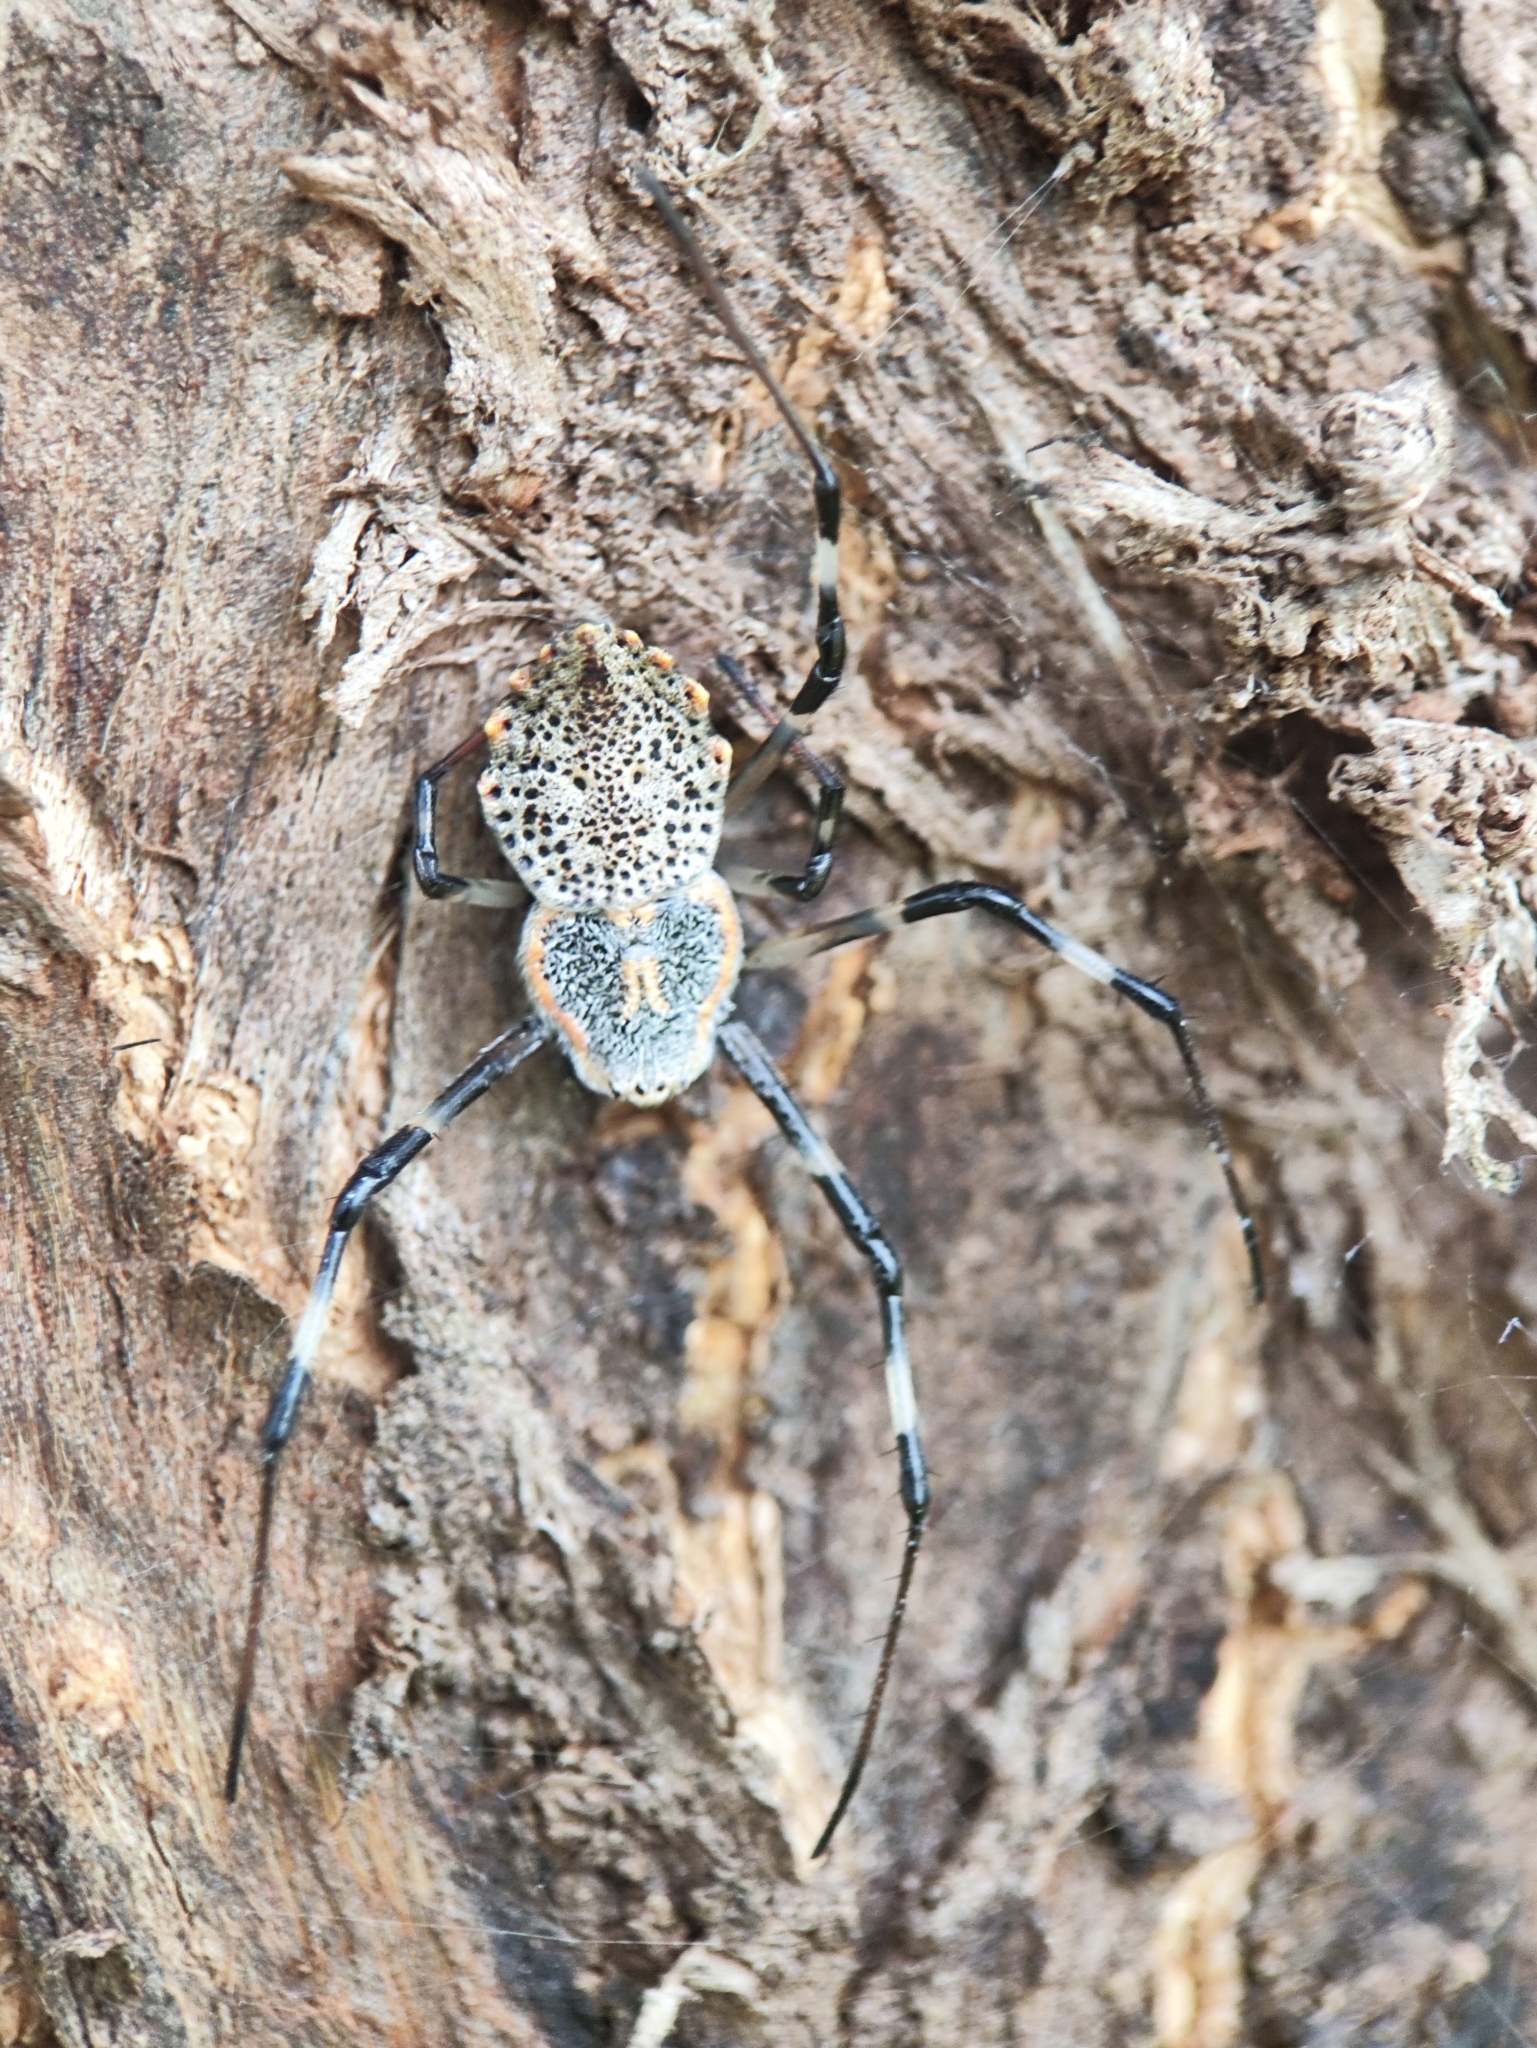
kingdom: Animalia
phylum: Arthropoda
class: Arachnida
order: Araneae
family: Araneidae
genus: Herennia
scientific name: Herennia multipuncta
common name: Spotted coin spider
